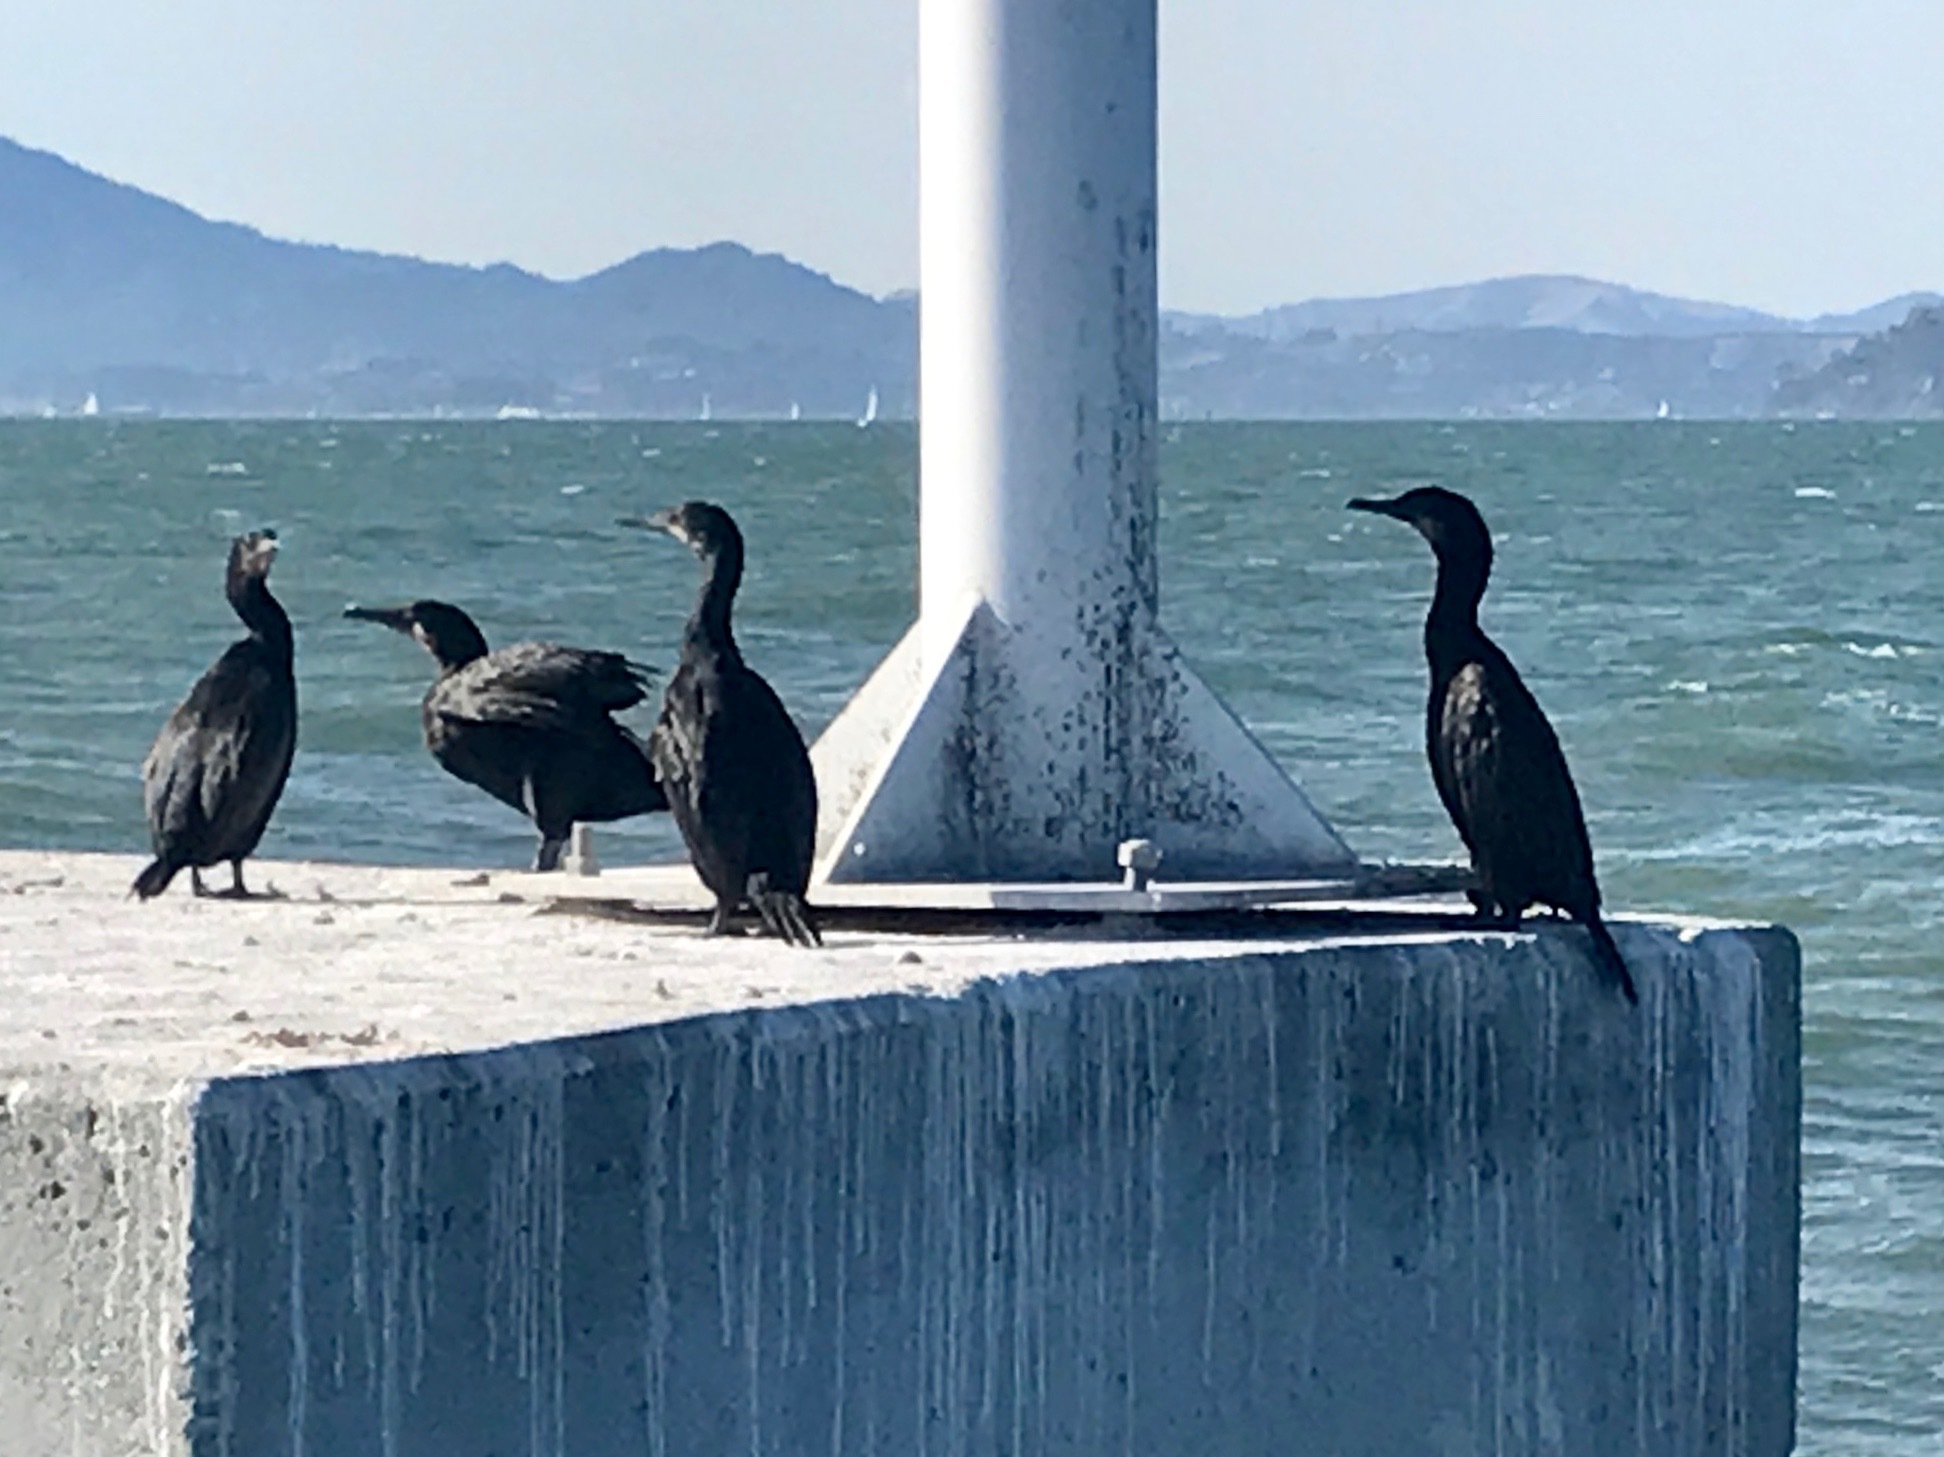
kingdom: Animalia
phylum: Chordata
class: Aves
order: Suliformes
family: Phalacrocoracidae
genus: Urile
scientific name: Urile penicillatus
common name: Brandt's cormorant
